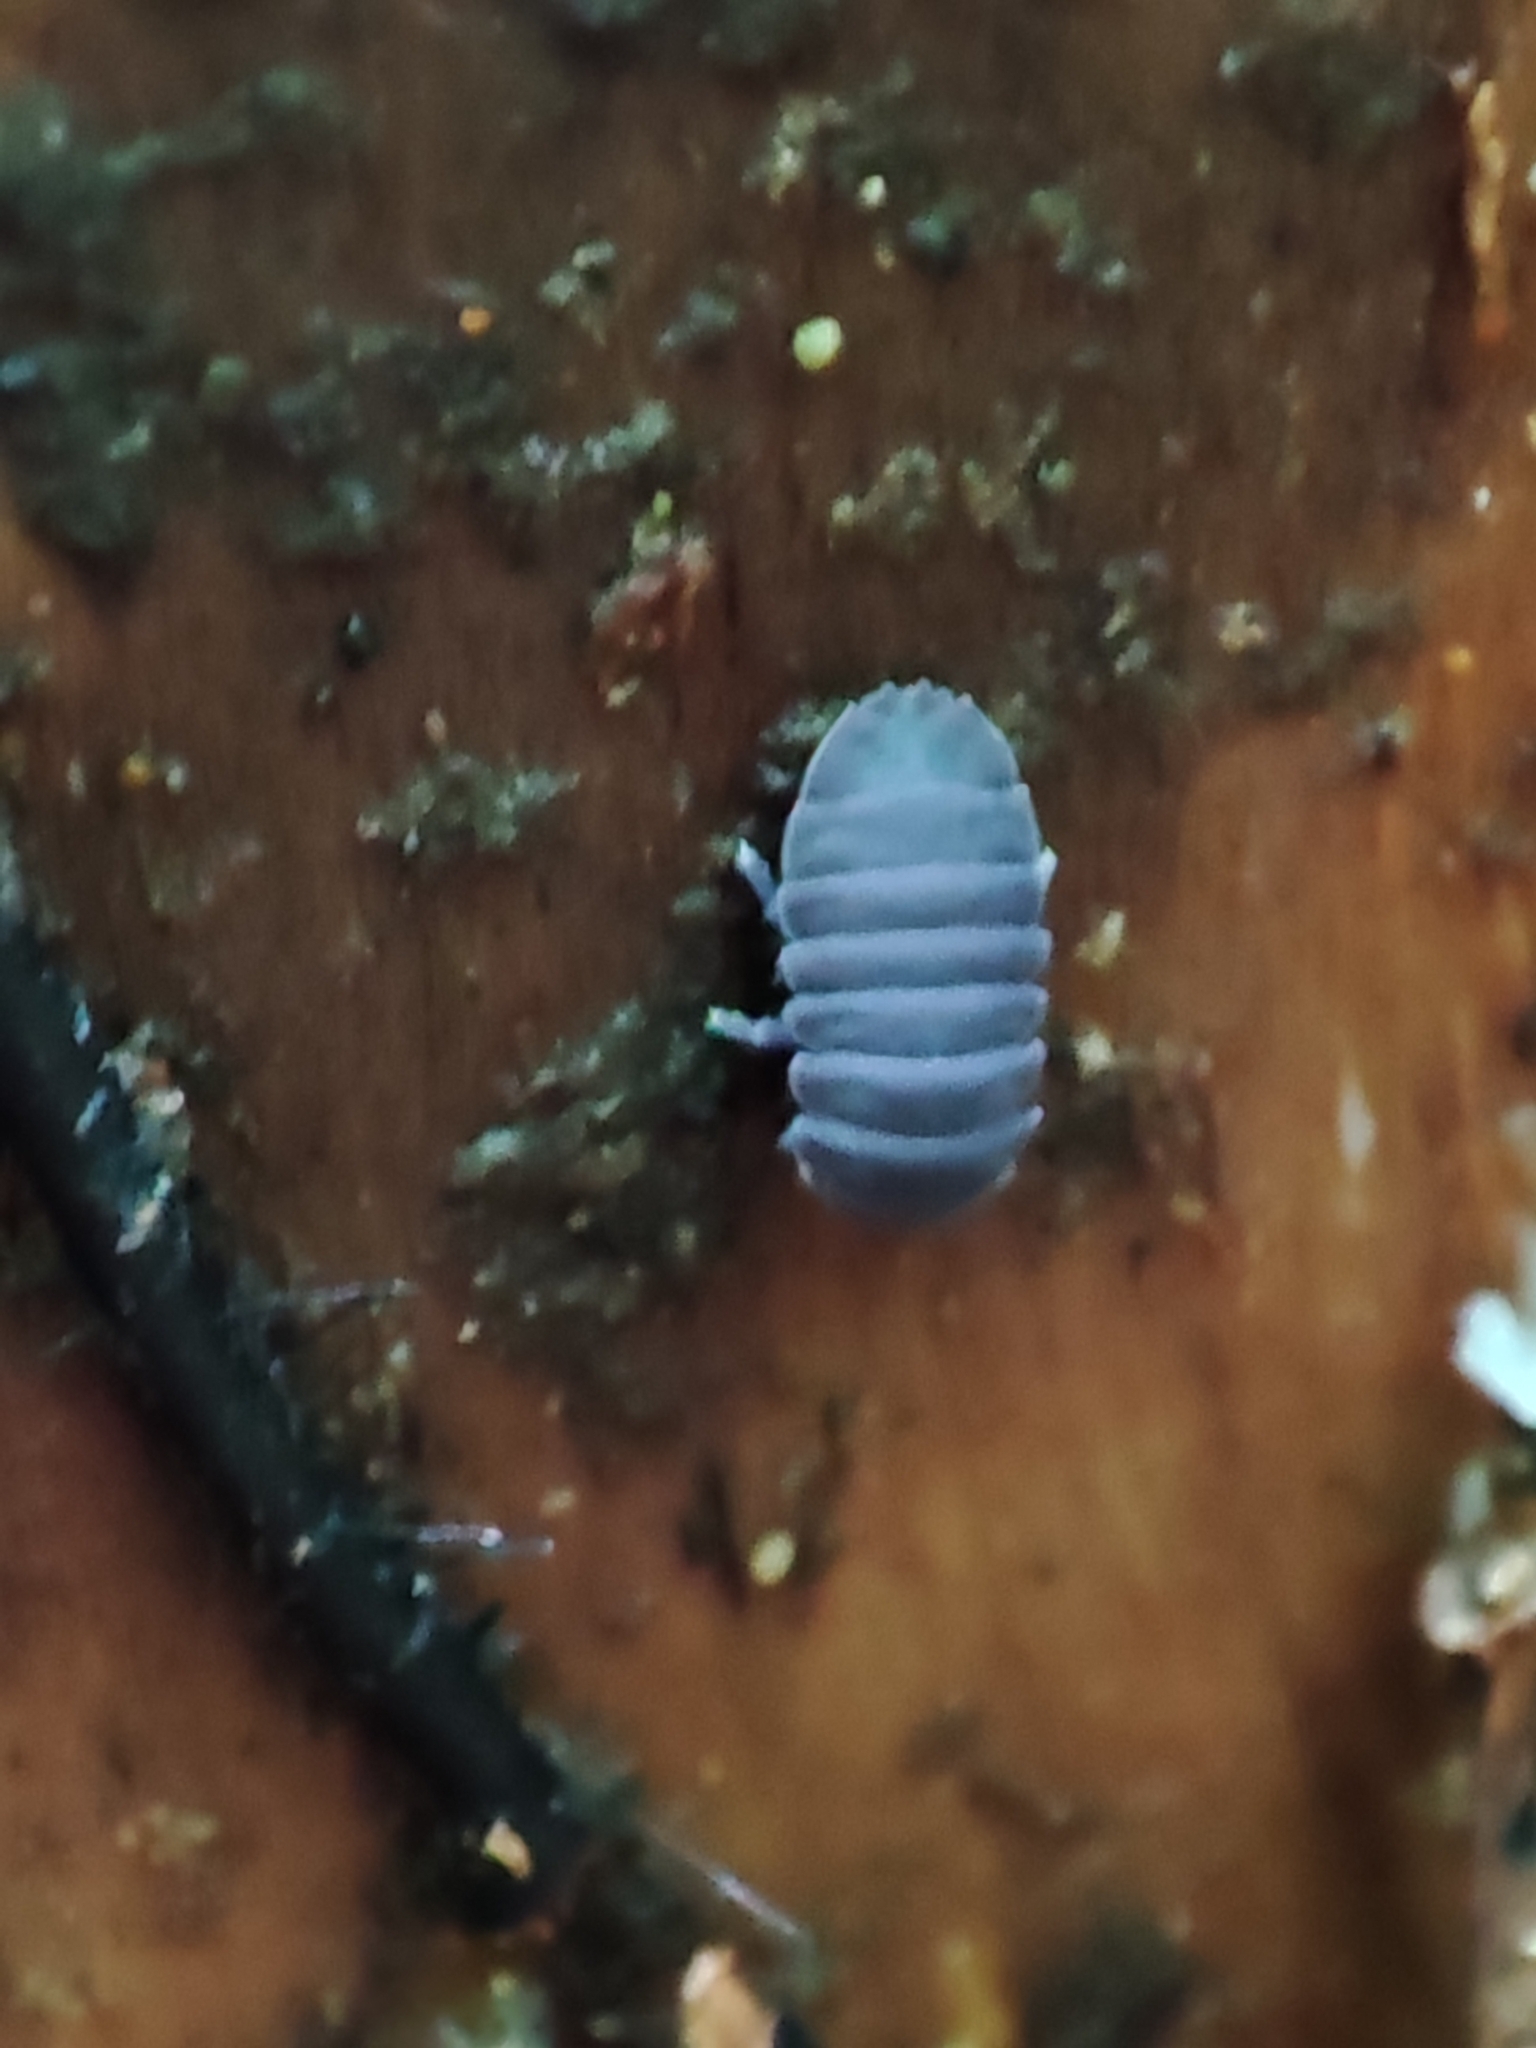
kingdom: Animalia
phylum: Arthropoda
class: Collembola
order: Poduromorpha
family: Onychiuridae
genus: Tetrodontophora
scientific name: Tetrodontophora bielanensis
